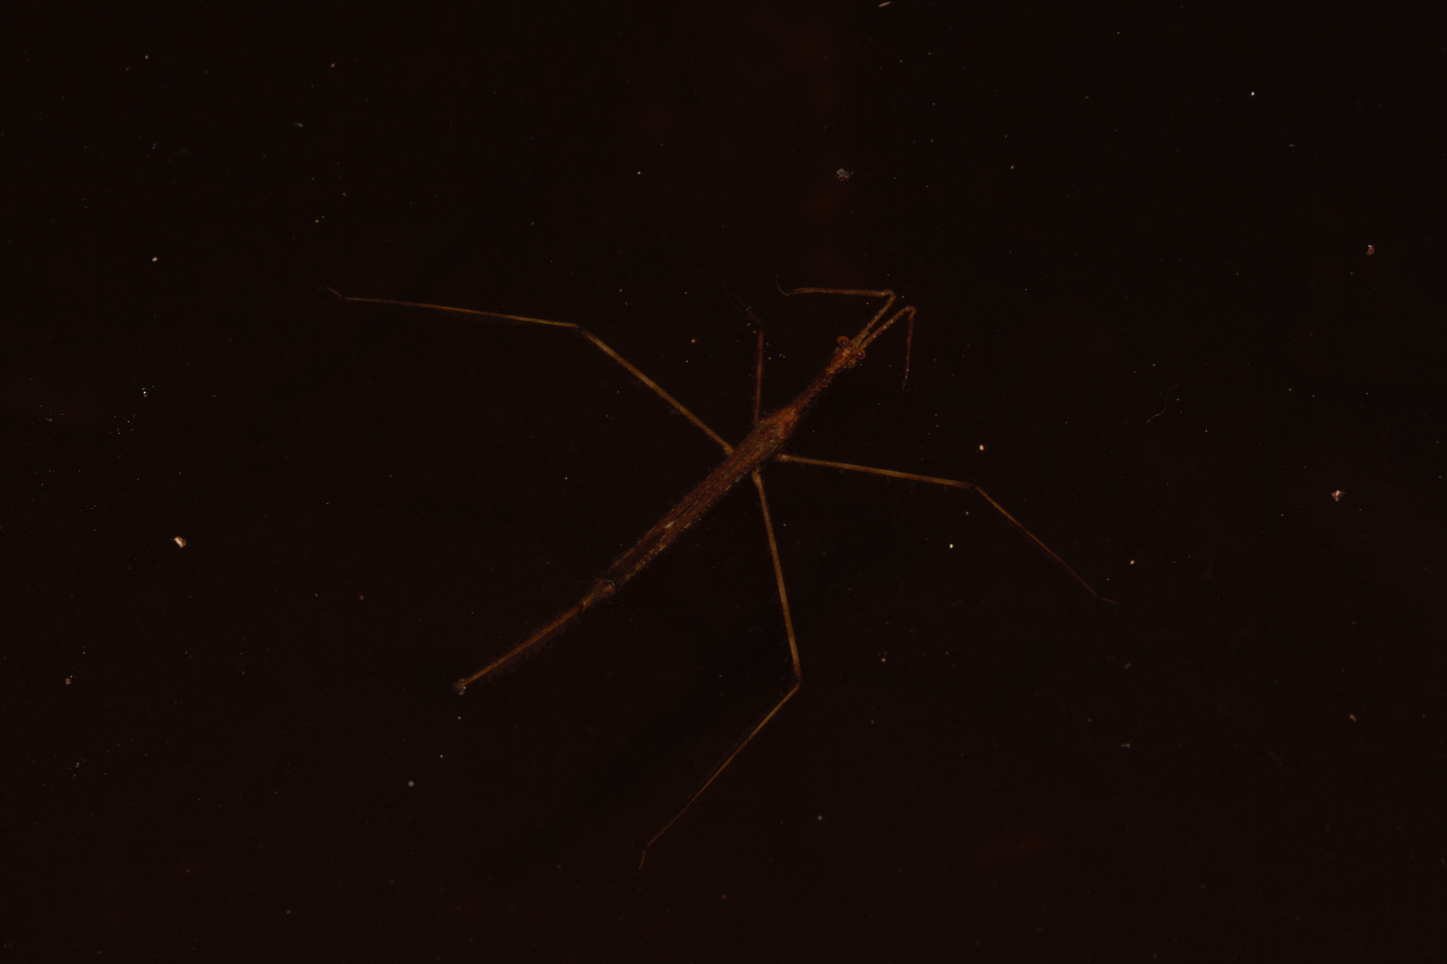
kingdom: Animalia
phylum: Arthropoda
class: Insecta
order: Hemiptera
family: Nepidae
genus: Ranatra
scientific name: Ranatra
